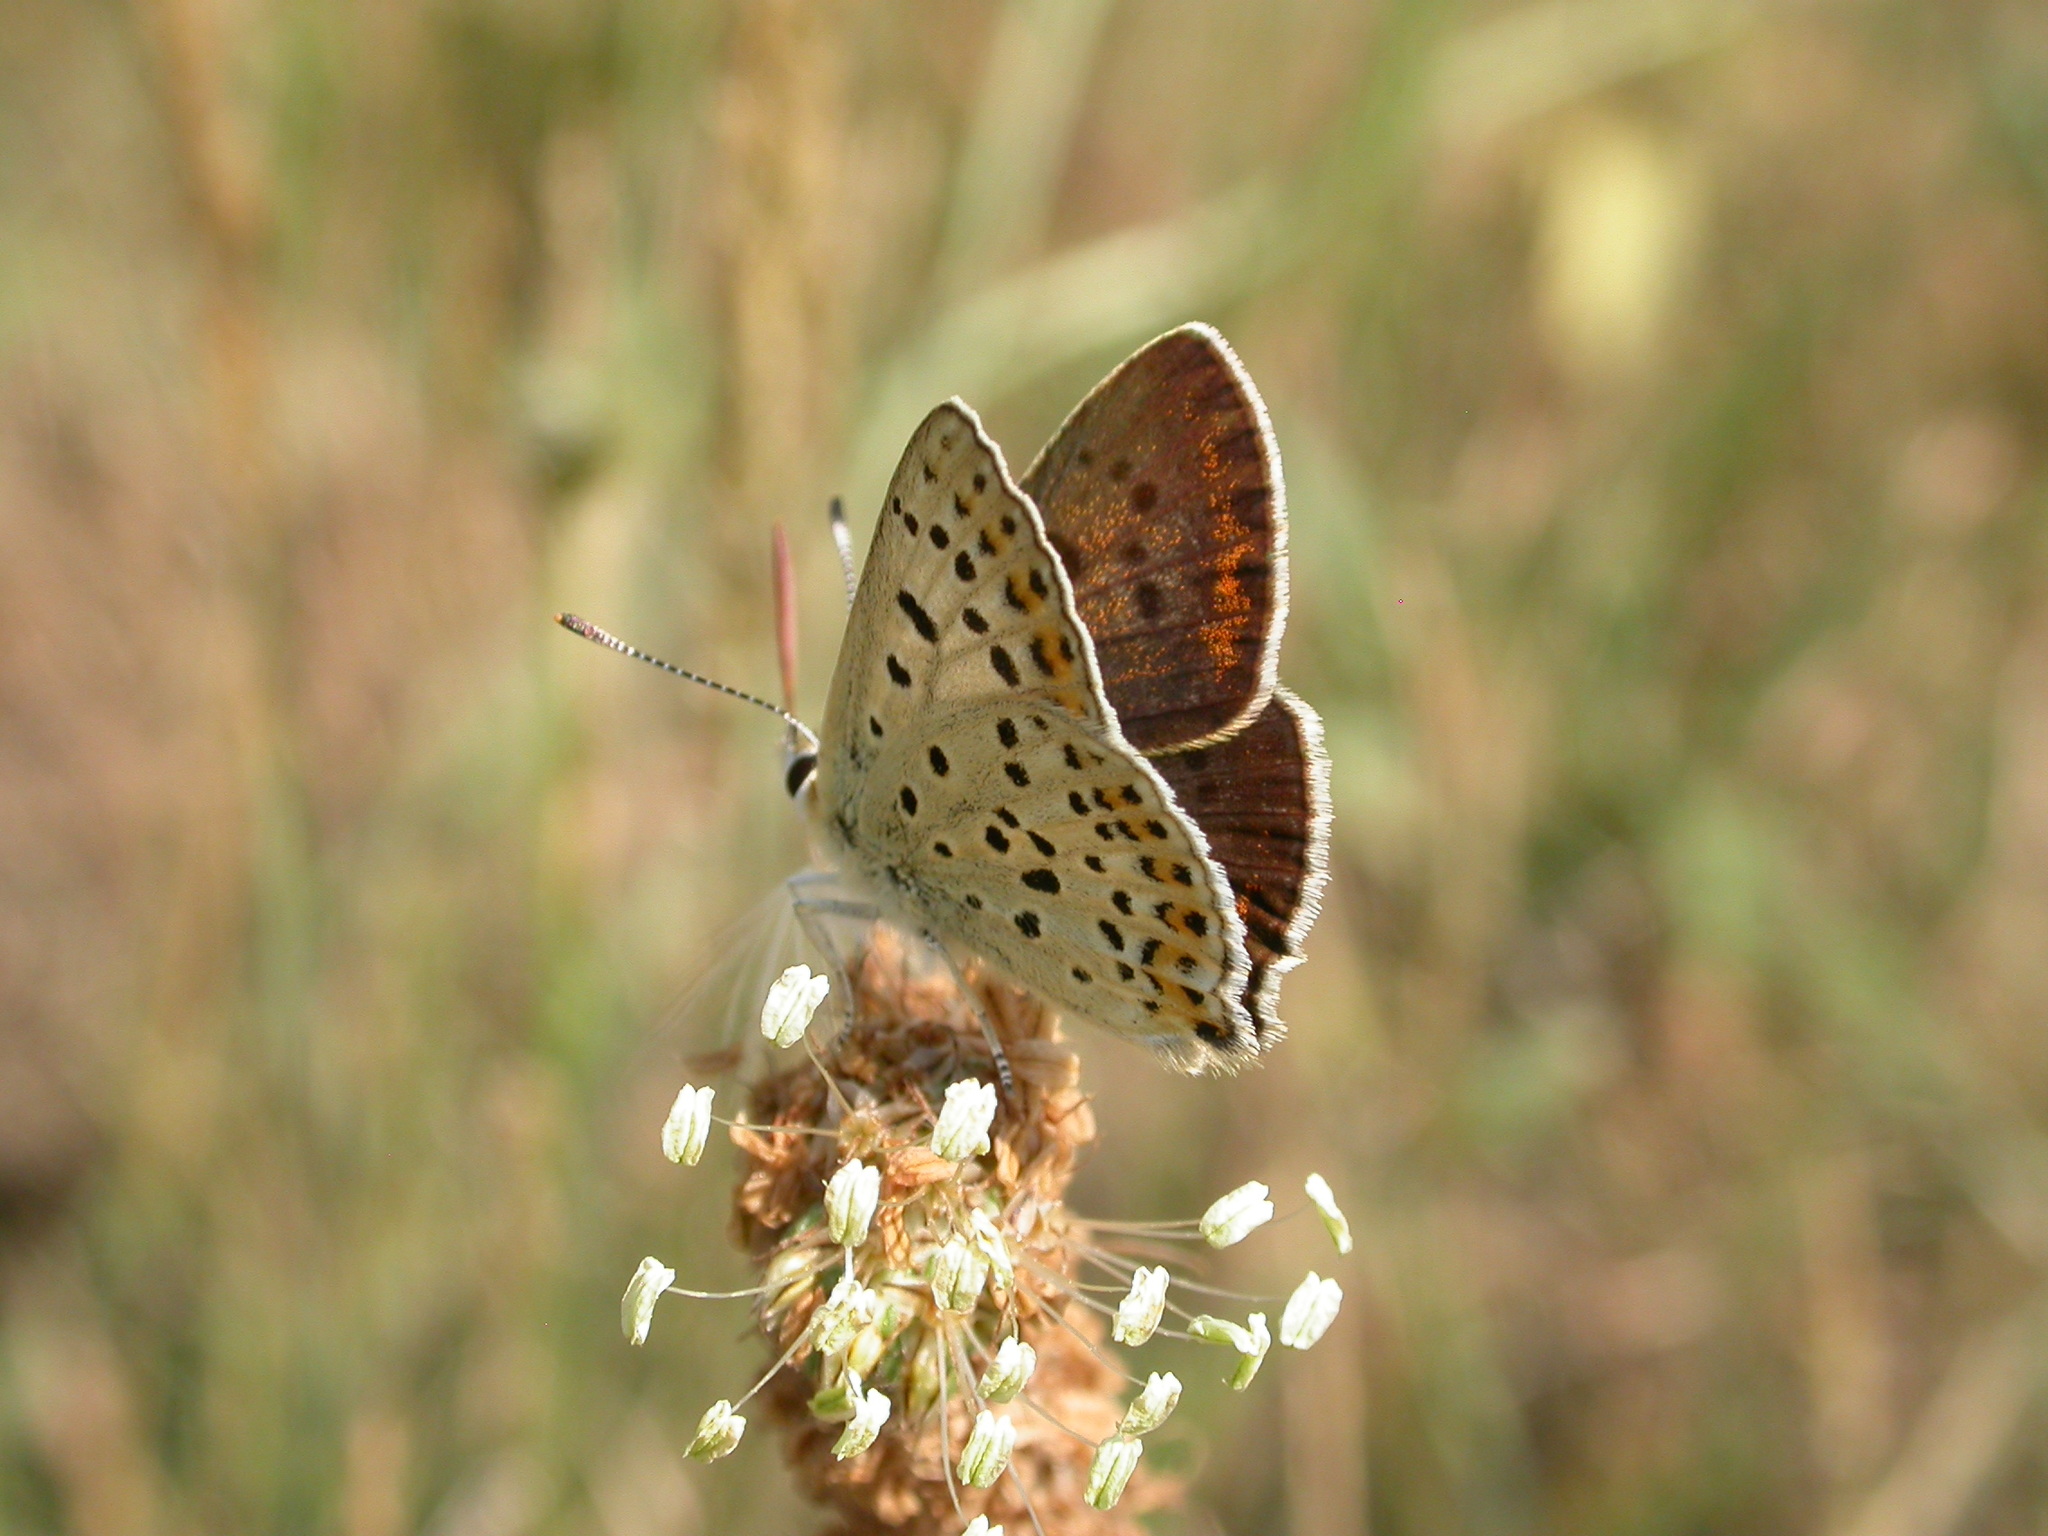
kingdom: Animalia
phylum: Arthropoda
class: Insecta
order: Lepidoptera
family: Lycaenidae
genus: Loweia
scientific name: Loweia tityrus
